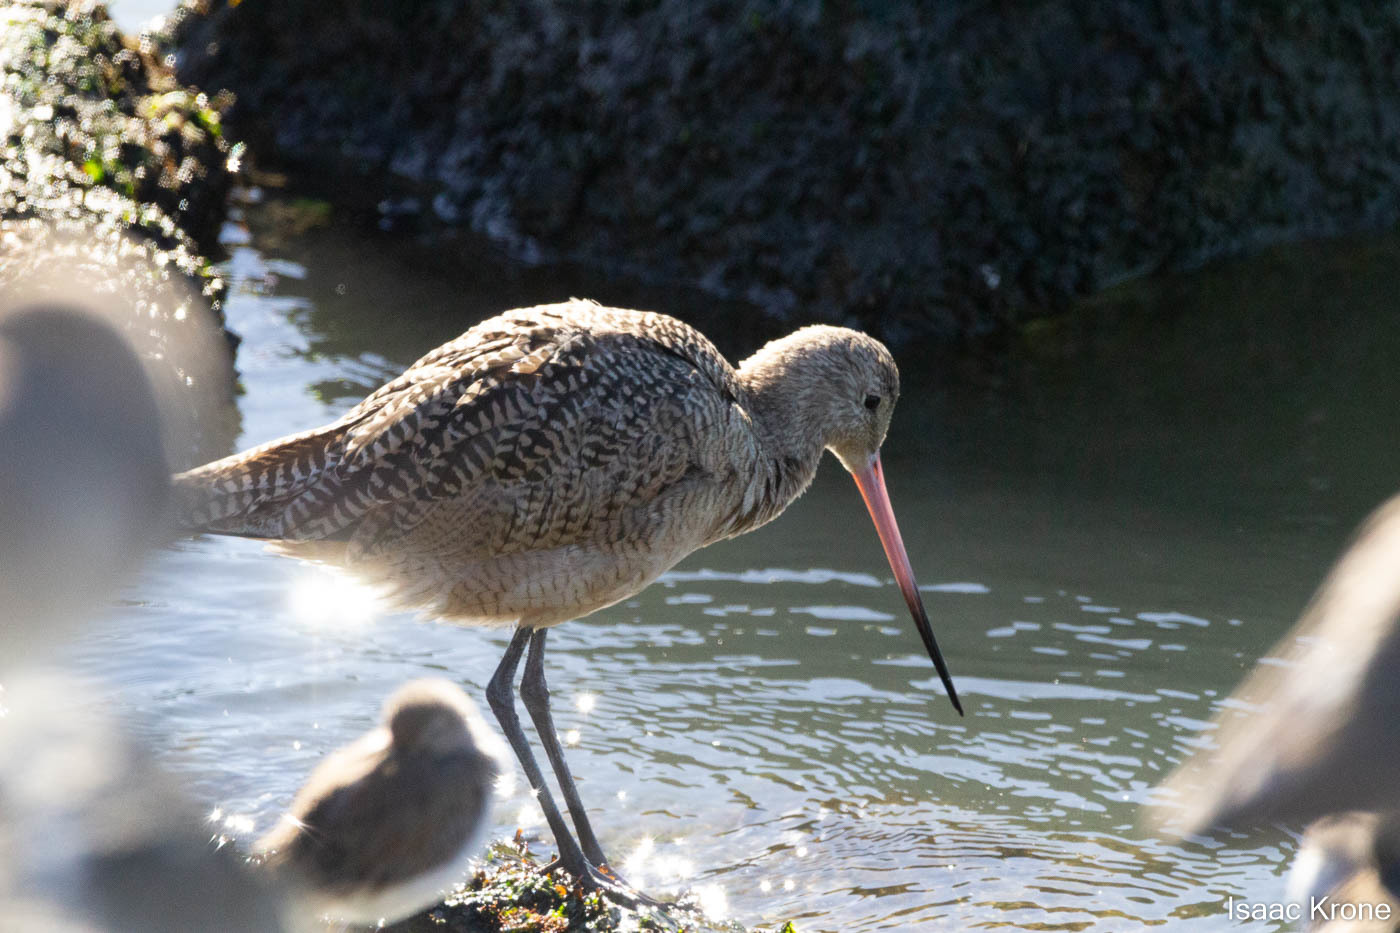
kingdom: Animalia
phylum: Chordata
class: Aves
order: Charadriiformes
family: Scolopacidae
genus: Limosa
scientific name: Limosa fedoa
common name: Marbled godwit
